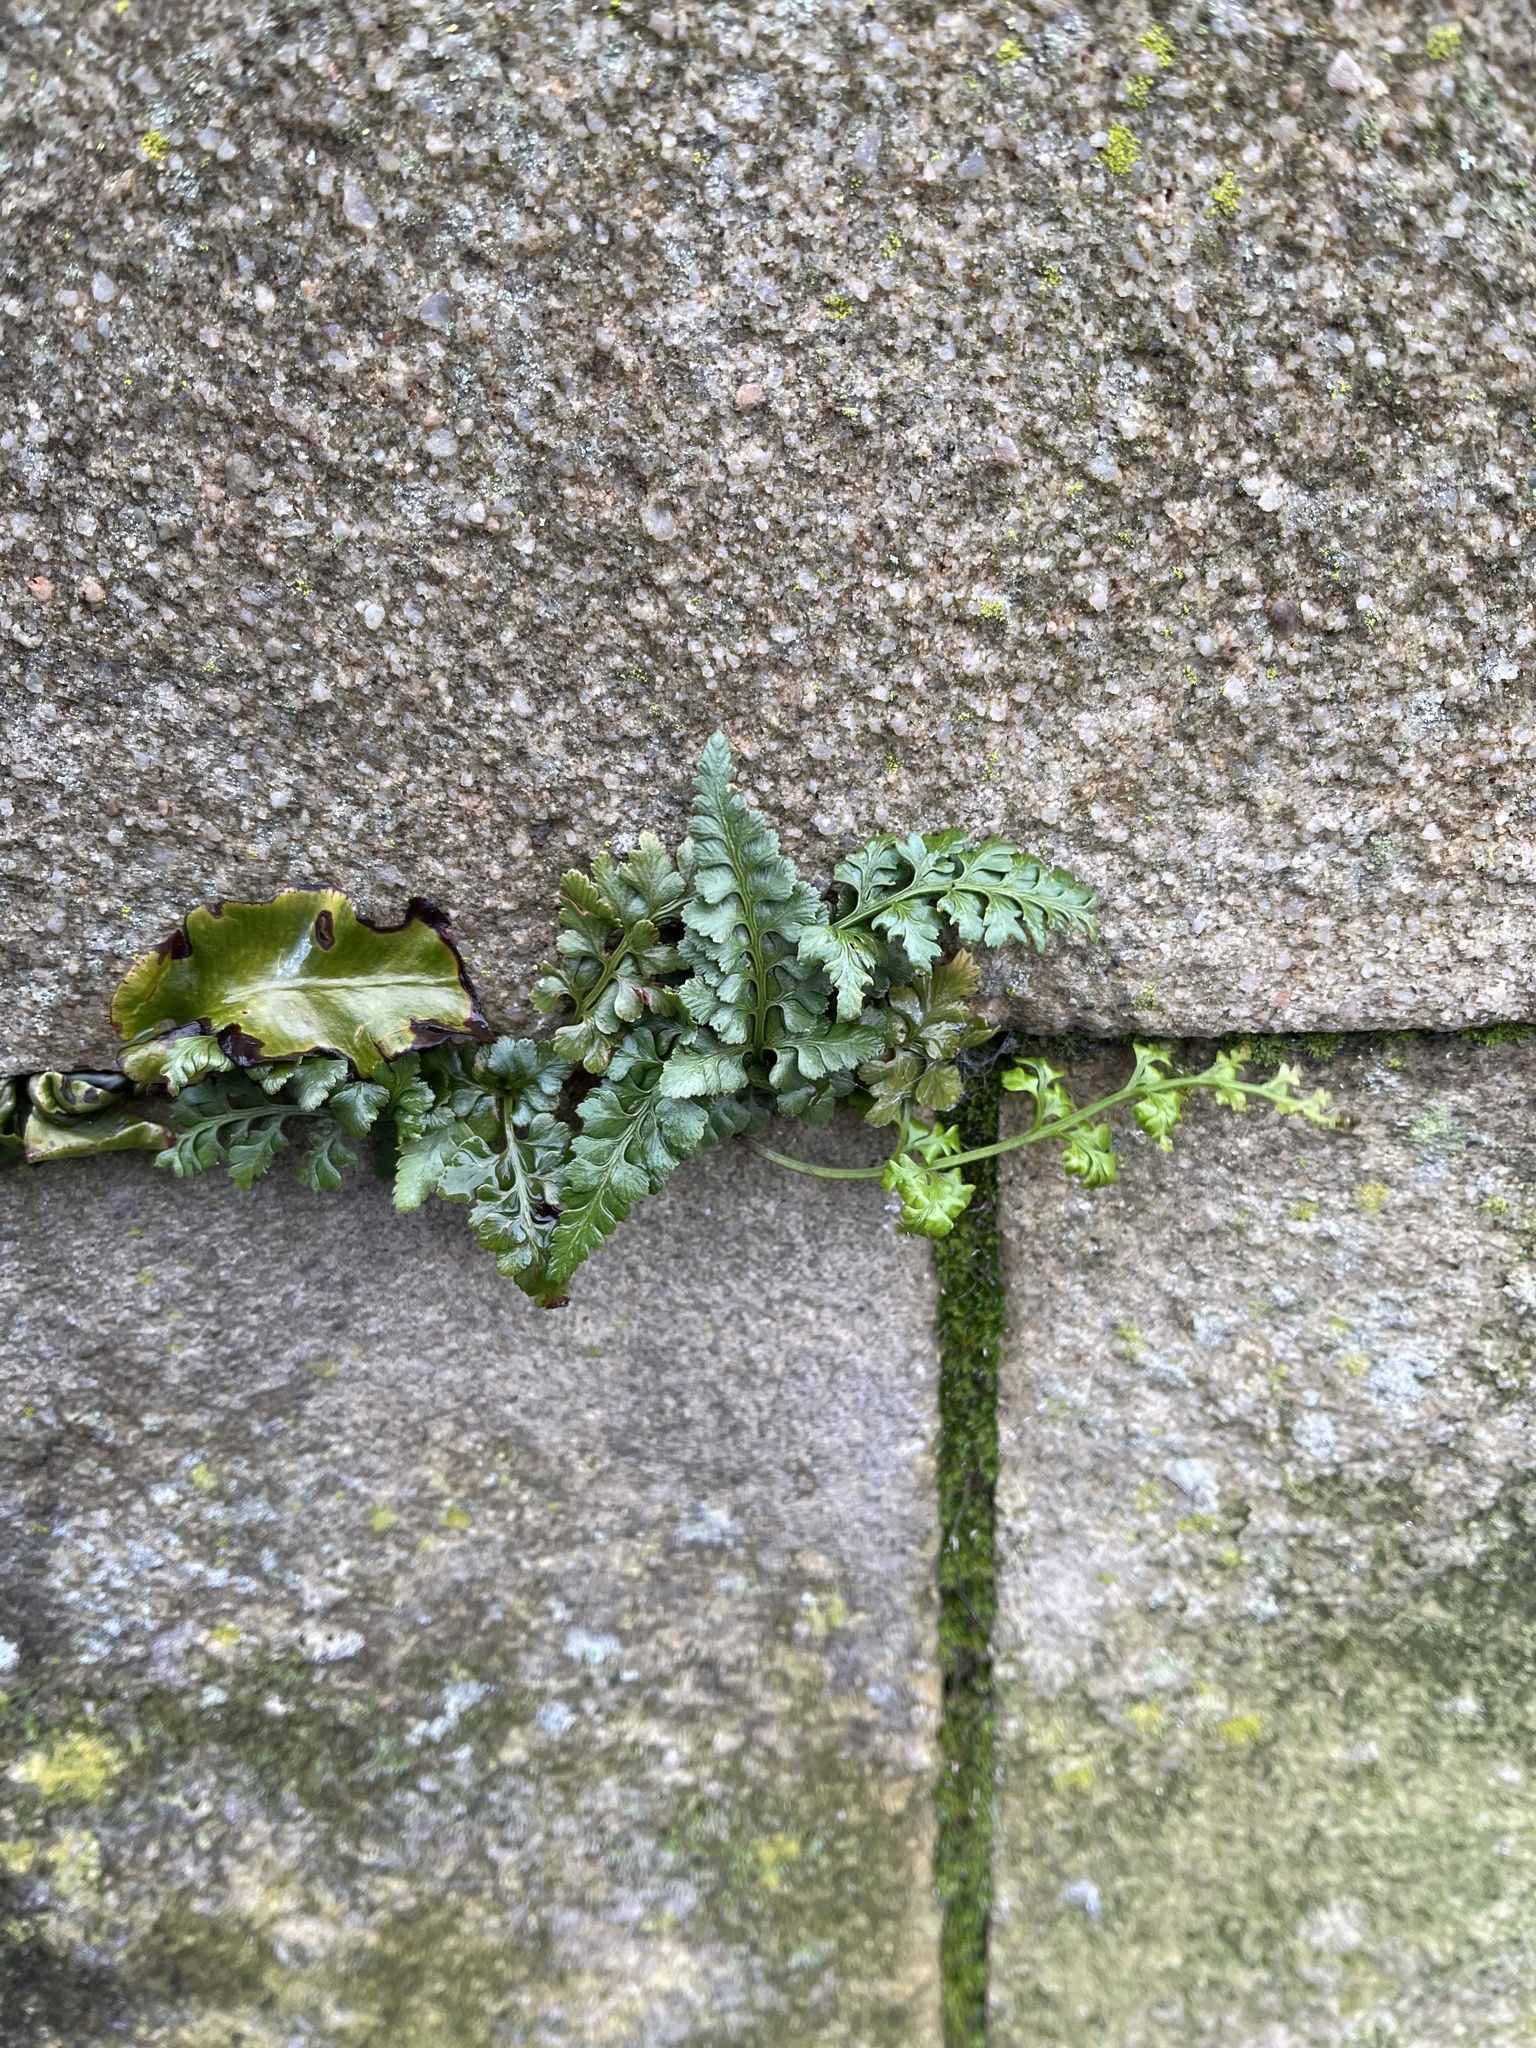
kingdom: Plantae
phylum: Tracheophyta
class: Polypodiopsida
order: Polypodiales
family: Aspleniaceae
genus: Asplenium
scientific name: Asplenium adiantum-nigrum
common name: Black spleenwort
